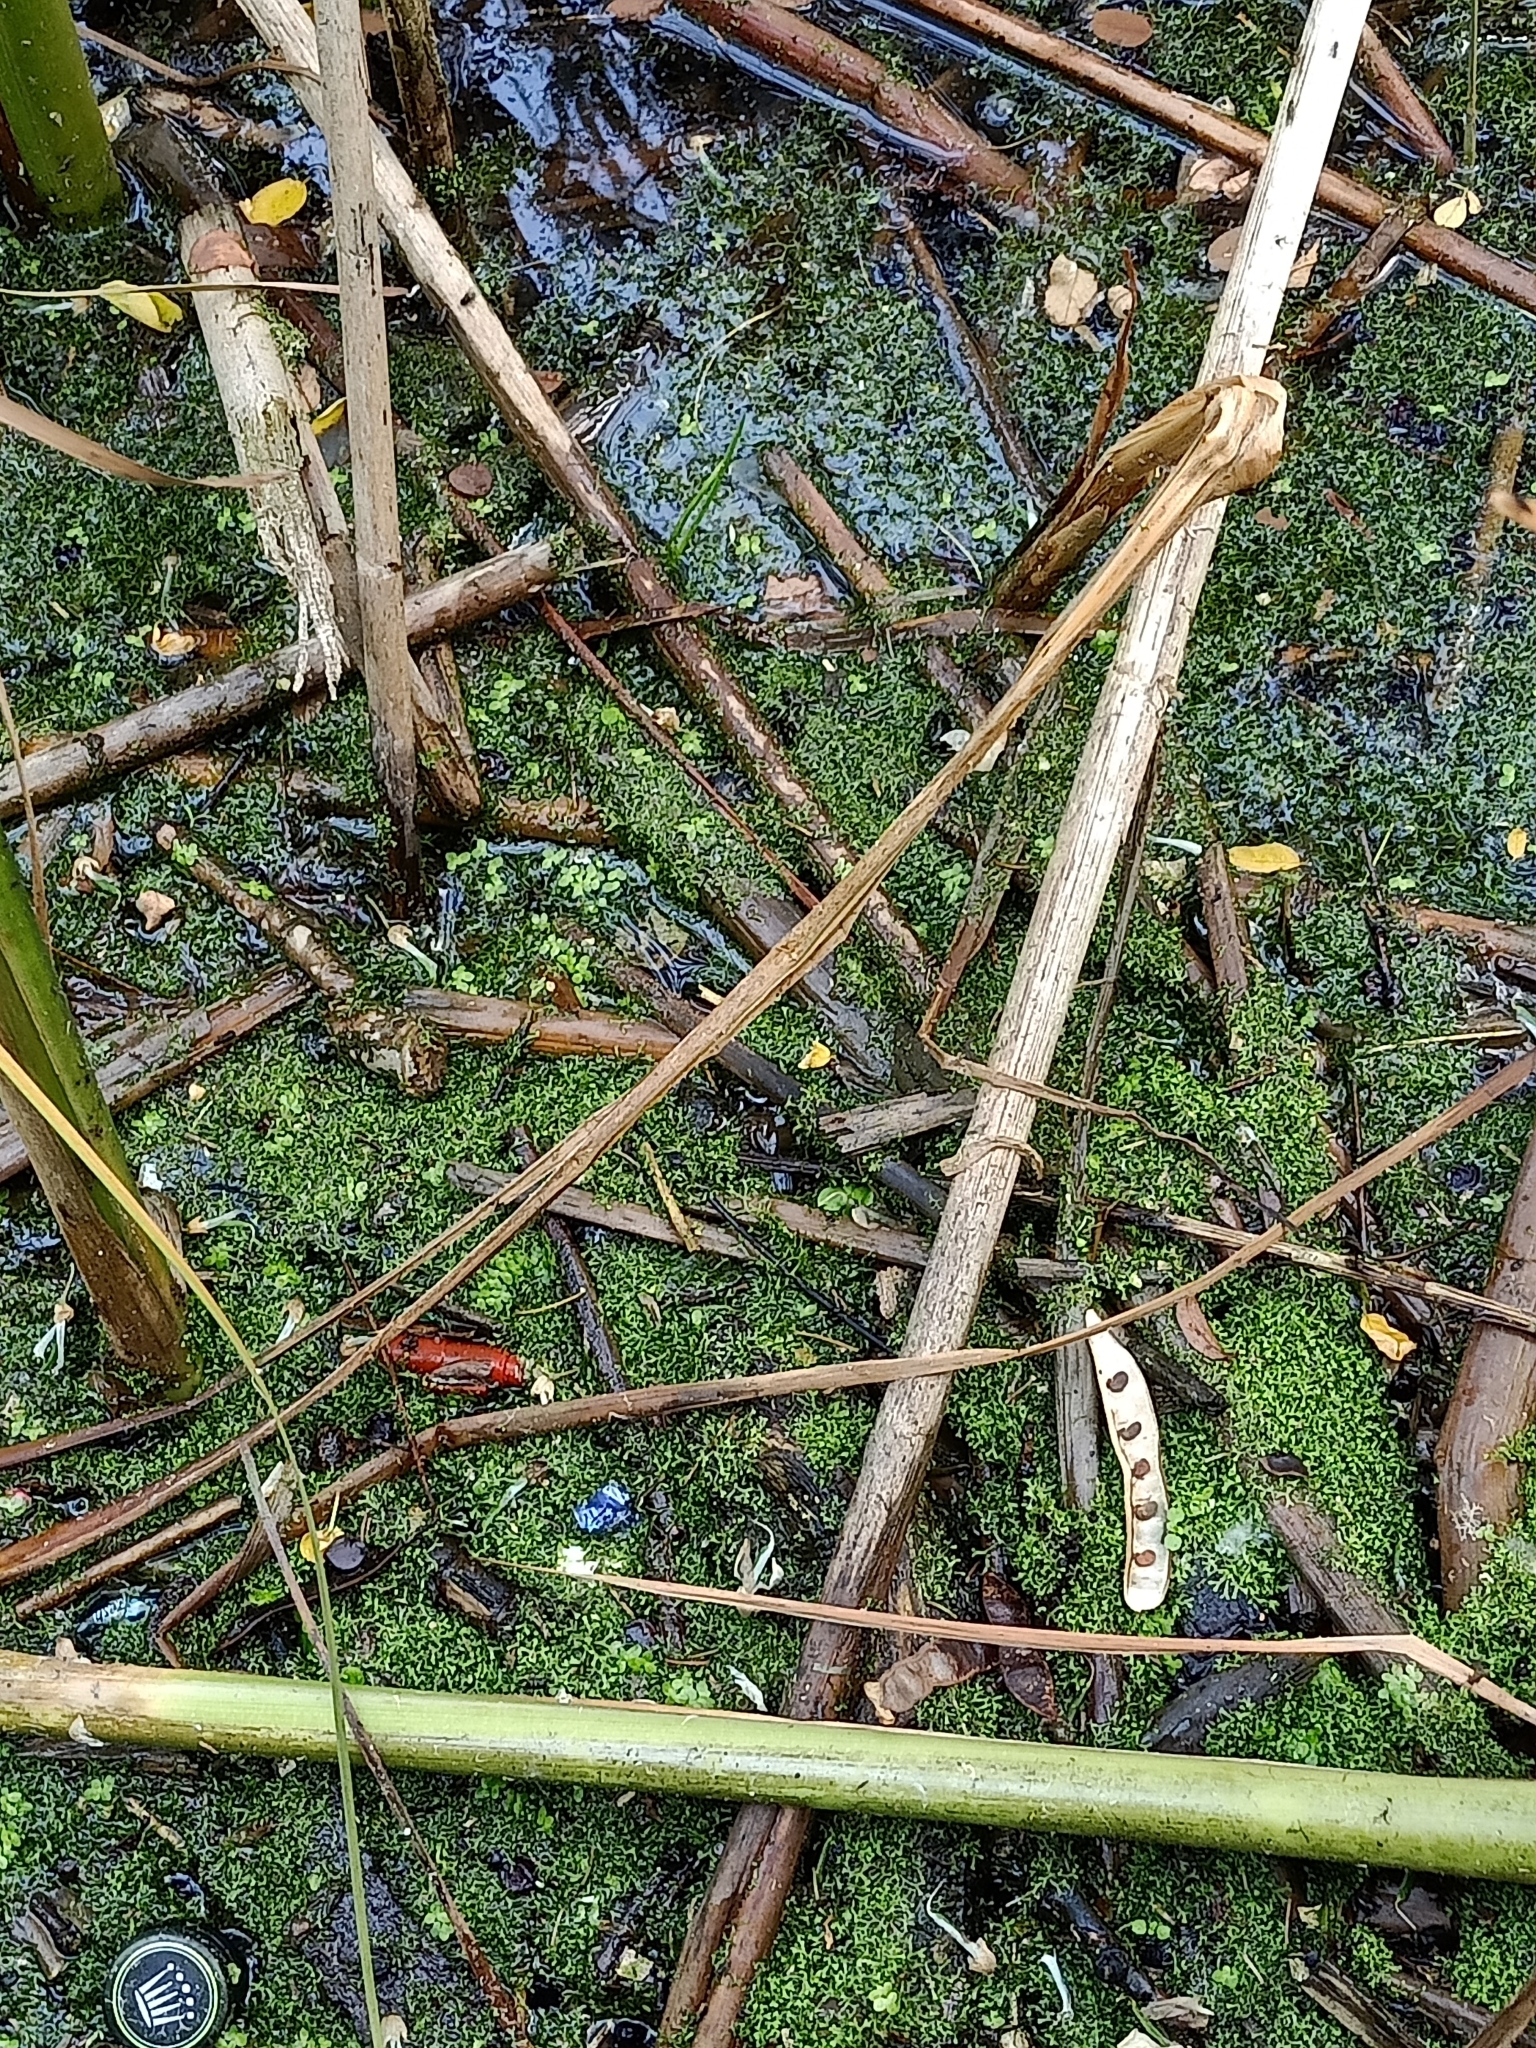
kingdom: Plantae
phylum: Marchantiophyta
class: Marchantiopsida
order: Marchantiales
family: Ricciaceae
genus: Riccia
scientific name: Riccia fluitans
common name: Floating crystalwort
